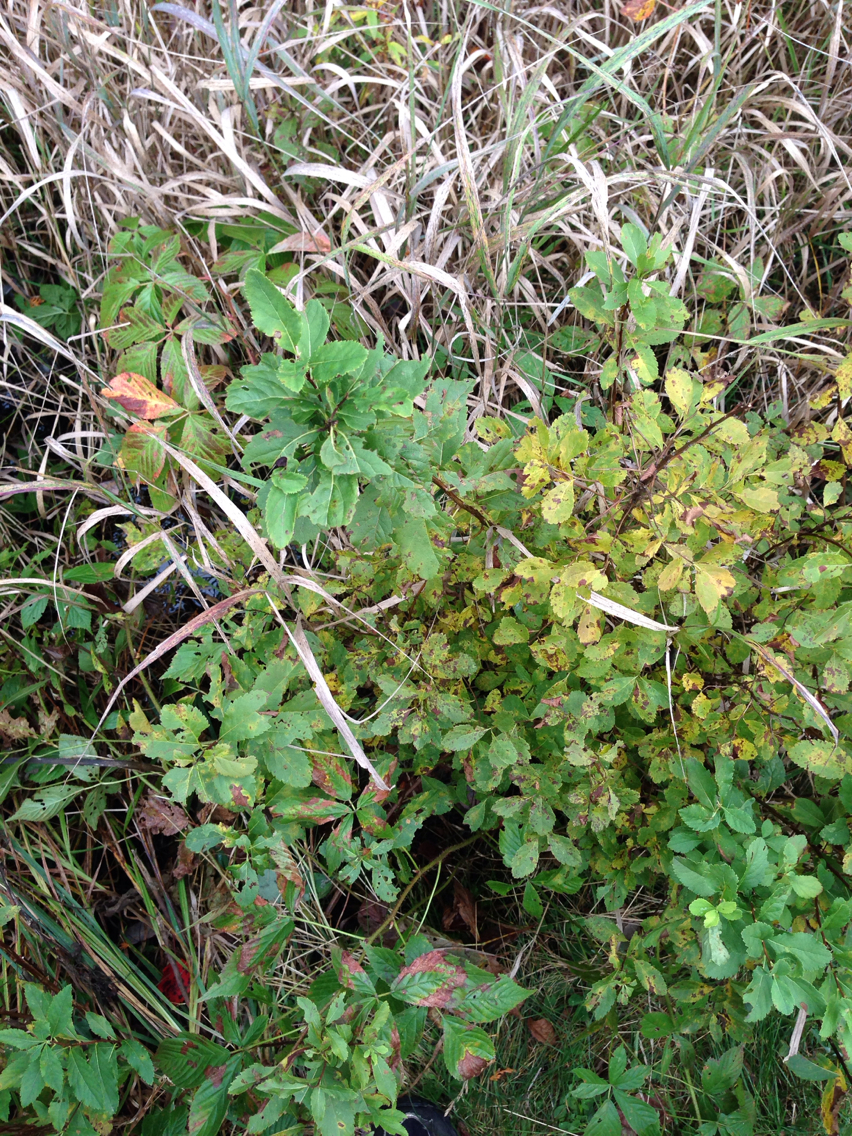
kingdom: Plantae
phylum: Tracheophyta
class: Magnoliopsida
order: Rosales
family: Rosaceae
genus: Spiraea
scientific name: Spiraea alba
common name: Pale bridewort
